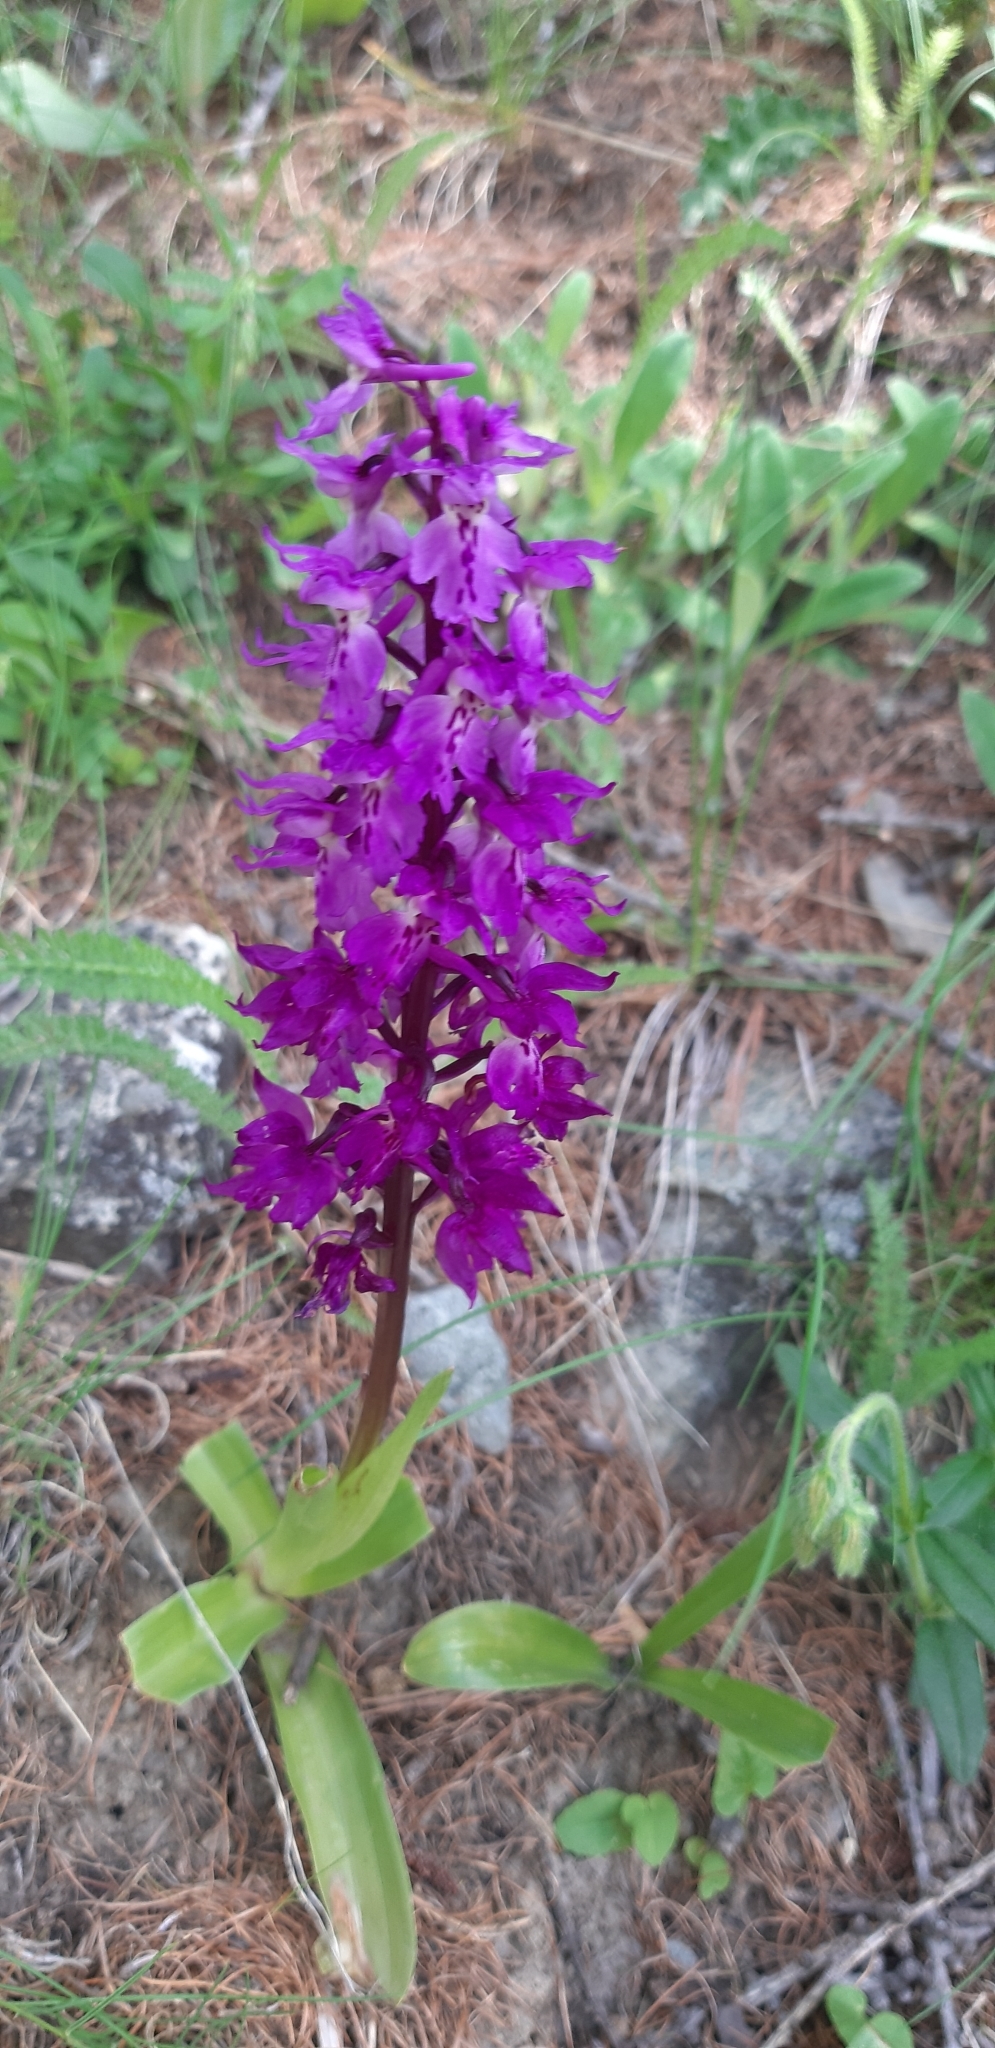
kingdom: Plantae
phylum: Tracheophyta
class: Liliopsida
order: Asparagales
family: Orchidaceae
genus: Orchis
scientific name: Orchis mascula
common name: Early-purple orchid
